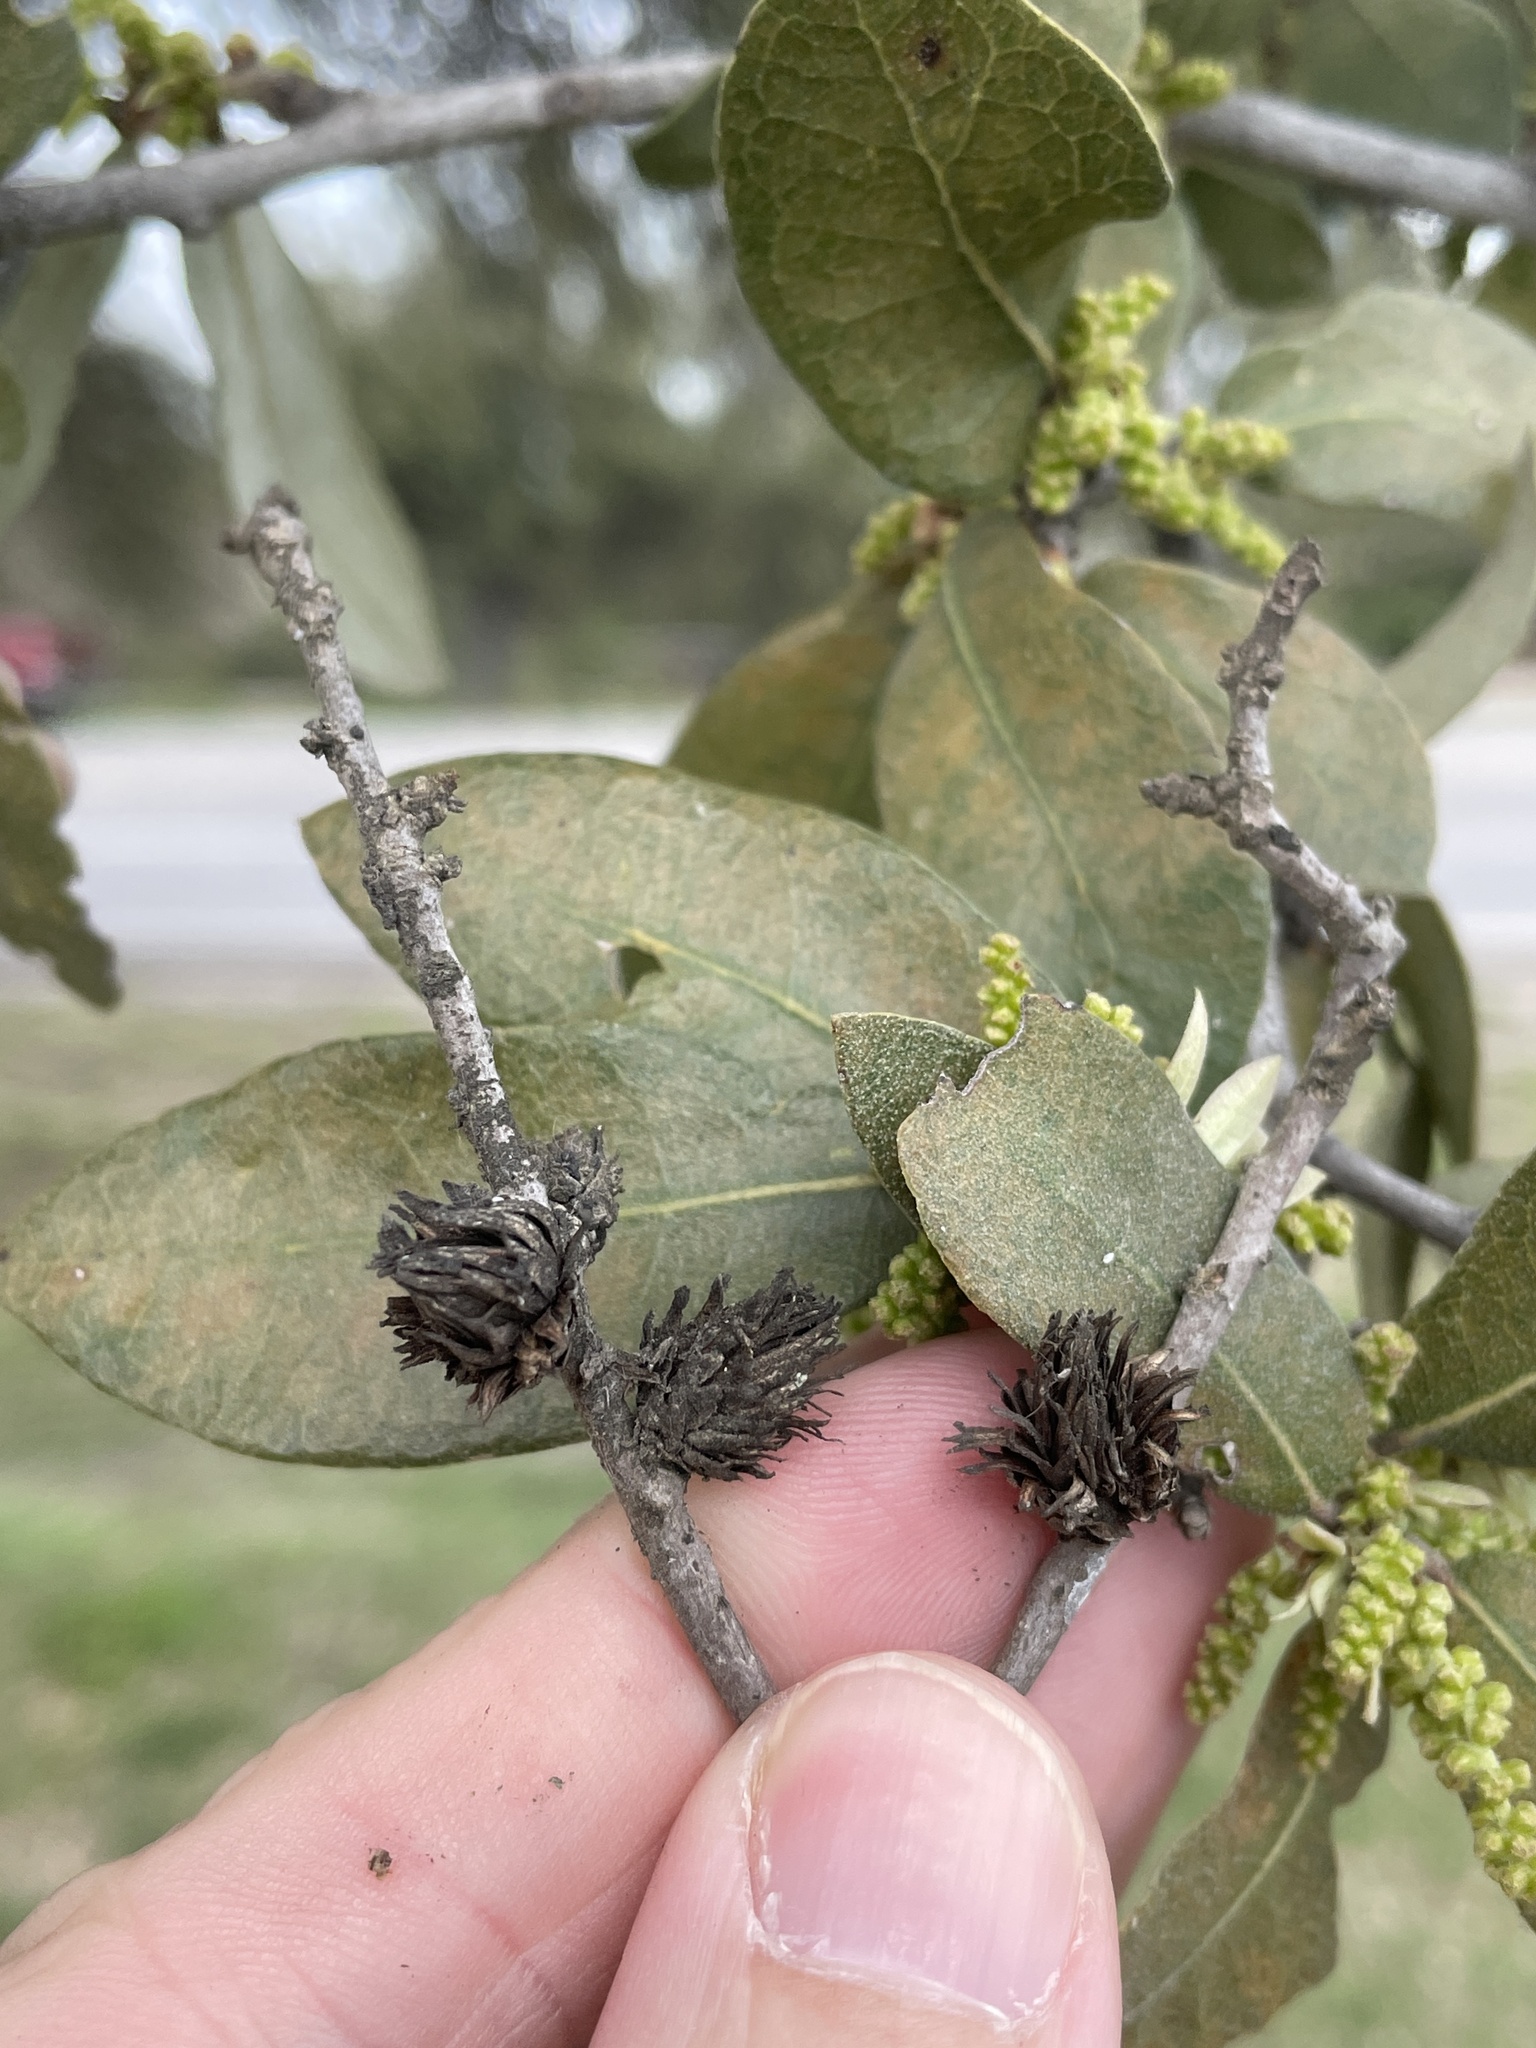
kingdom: Animalia
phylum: Arthropoda
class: Insecta
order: Hymenoptera
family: Cynipidae
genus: Andricus
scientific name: Andricus quercusfoliatus
